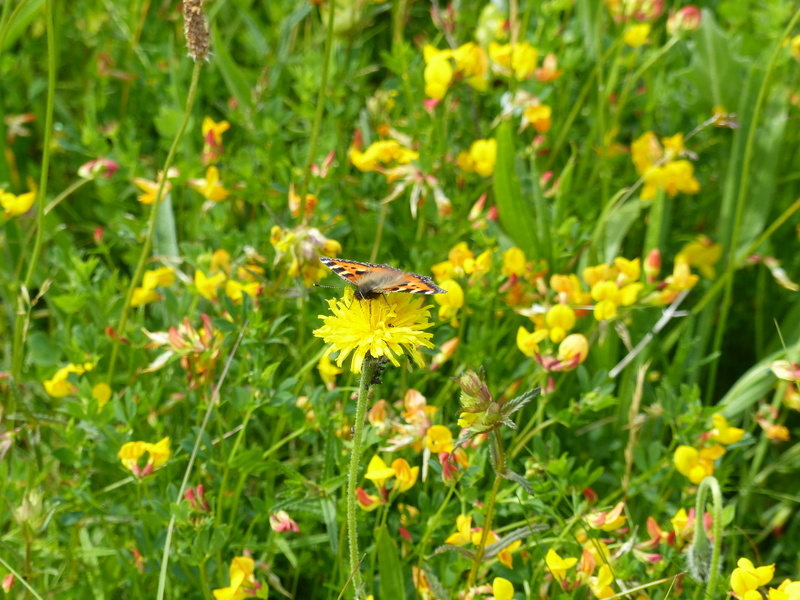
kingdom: Animalia
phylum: Arthropoda
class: Insecta
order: Lepidoptera
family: Nymphalidae
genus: Aglais
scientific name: Aglais urticae
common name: Small tortoiseshell
